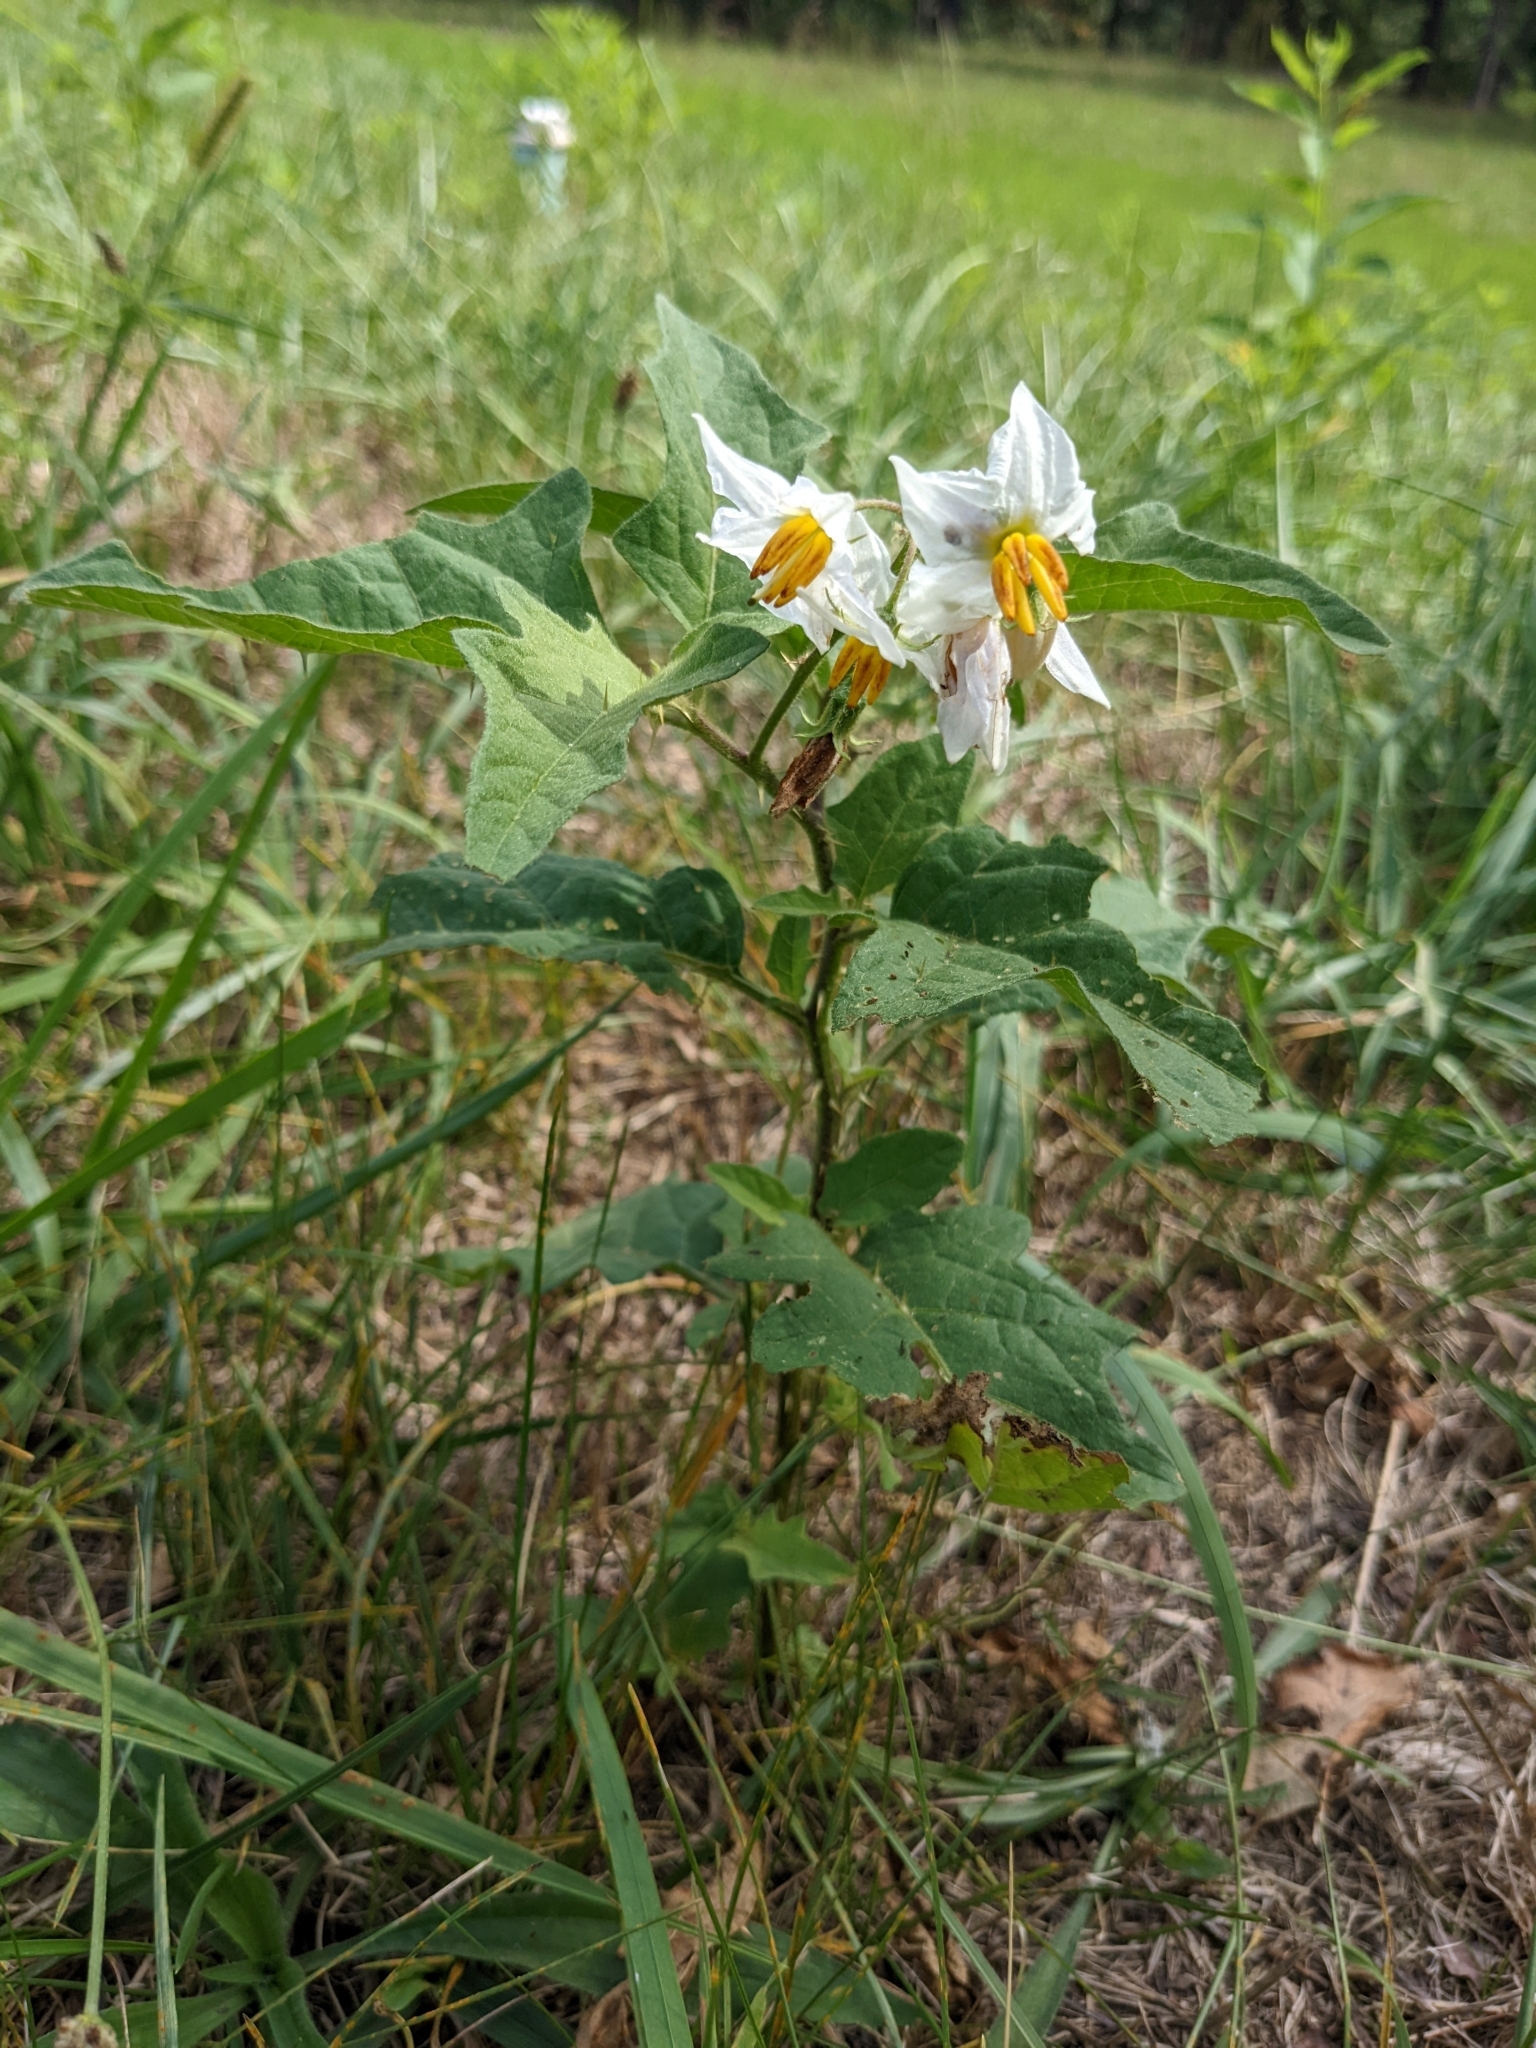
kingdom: Plantae
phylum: Tracheophyta
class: Magnoliopsida
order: Solanales
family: Solanaceae
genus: Solanum
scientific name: Solanum carolinense
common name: Horse-nettle
